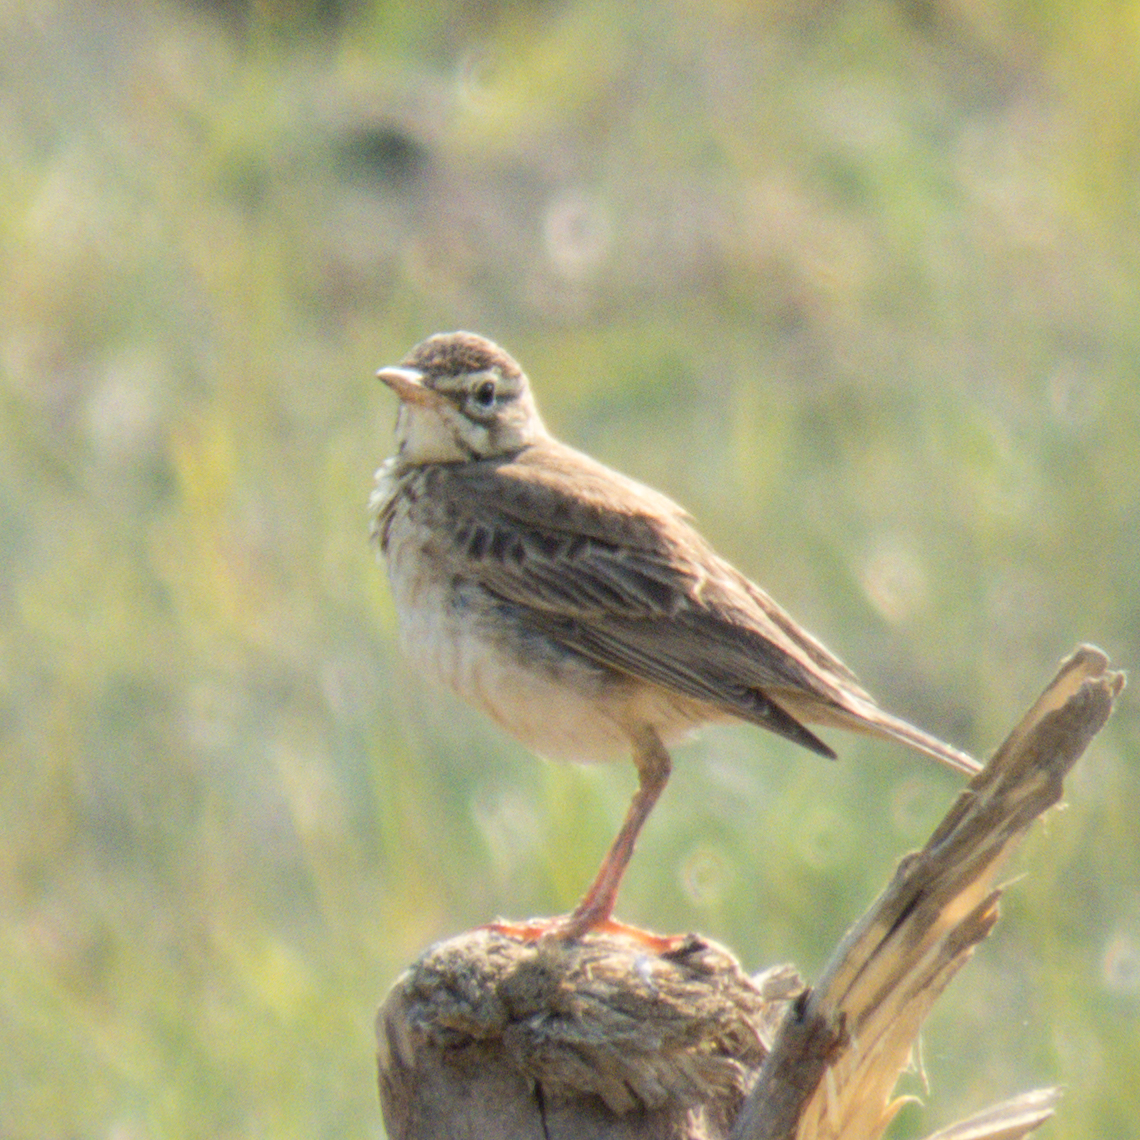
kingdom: Animalia
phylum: Chordata
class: Aves
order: Passeriformes
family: Motacillidae
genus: Anthus
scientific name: Anthus rufulus
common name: Paddyfield pipit
